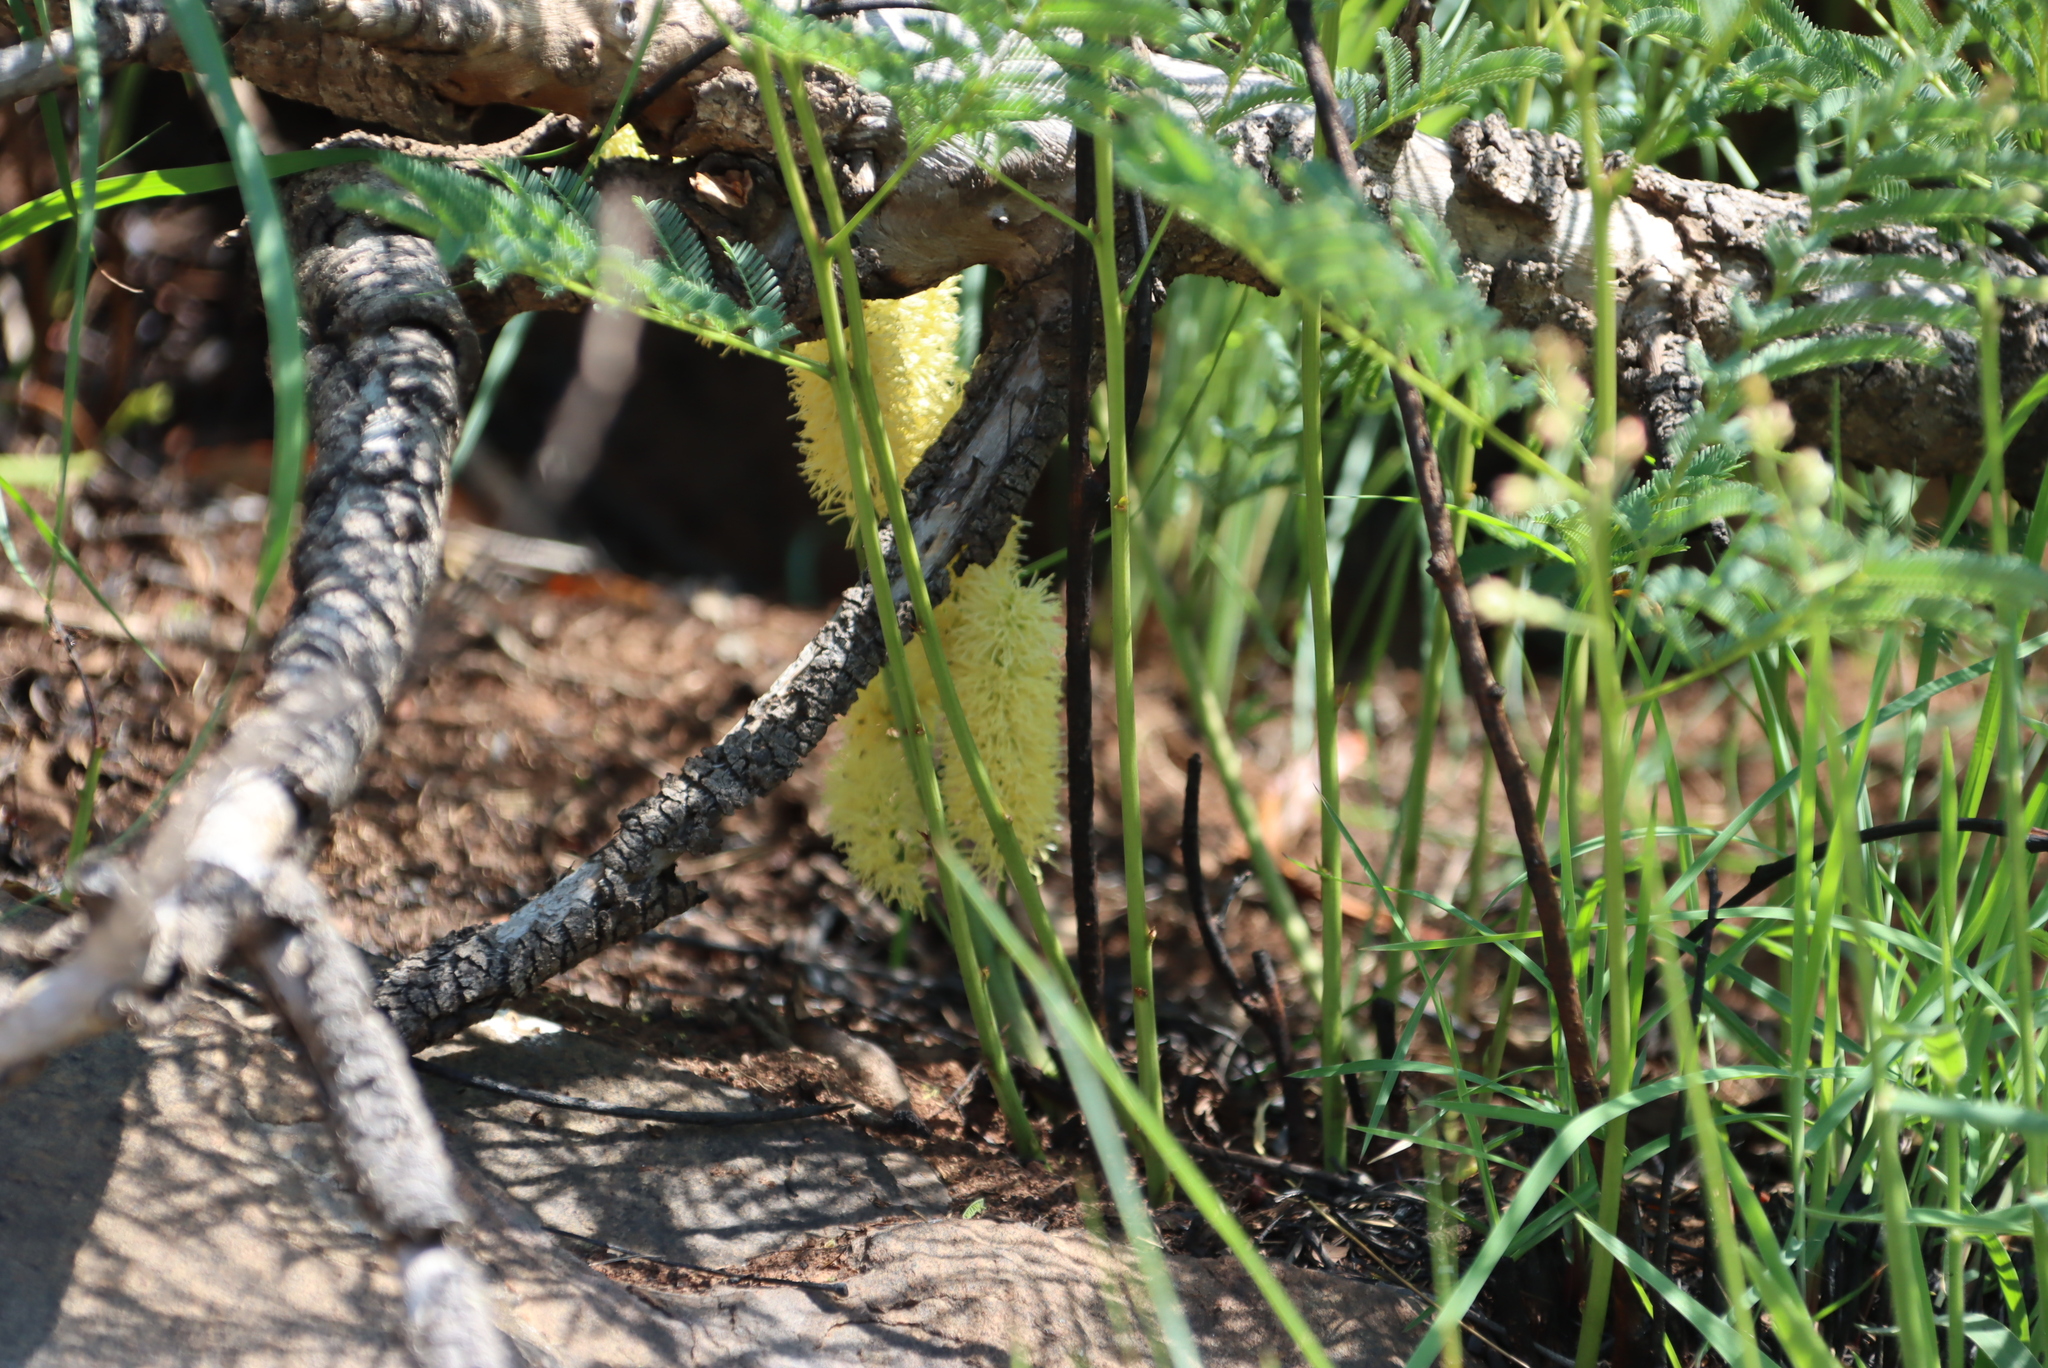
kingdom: Plantae
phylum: Tracheophyta
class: Magnoliopsida
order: Fabales
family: Fabaceae
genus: Elephantorrhiza
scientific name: Elephantorrhiza elephantina
